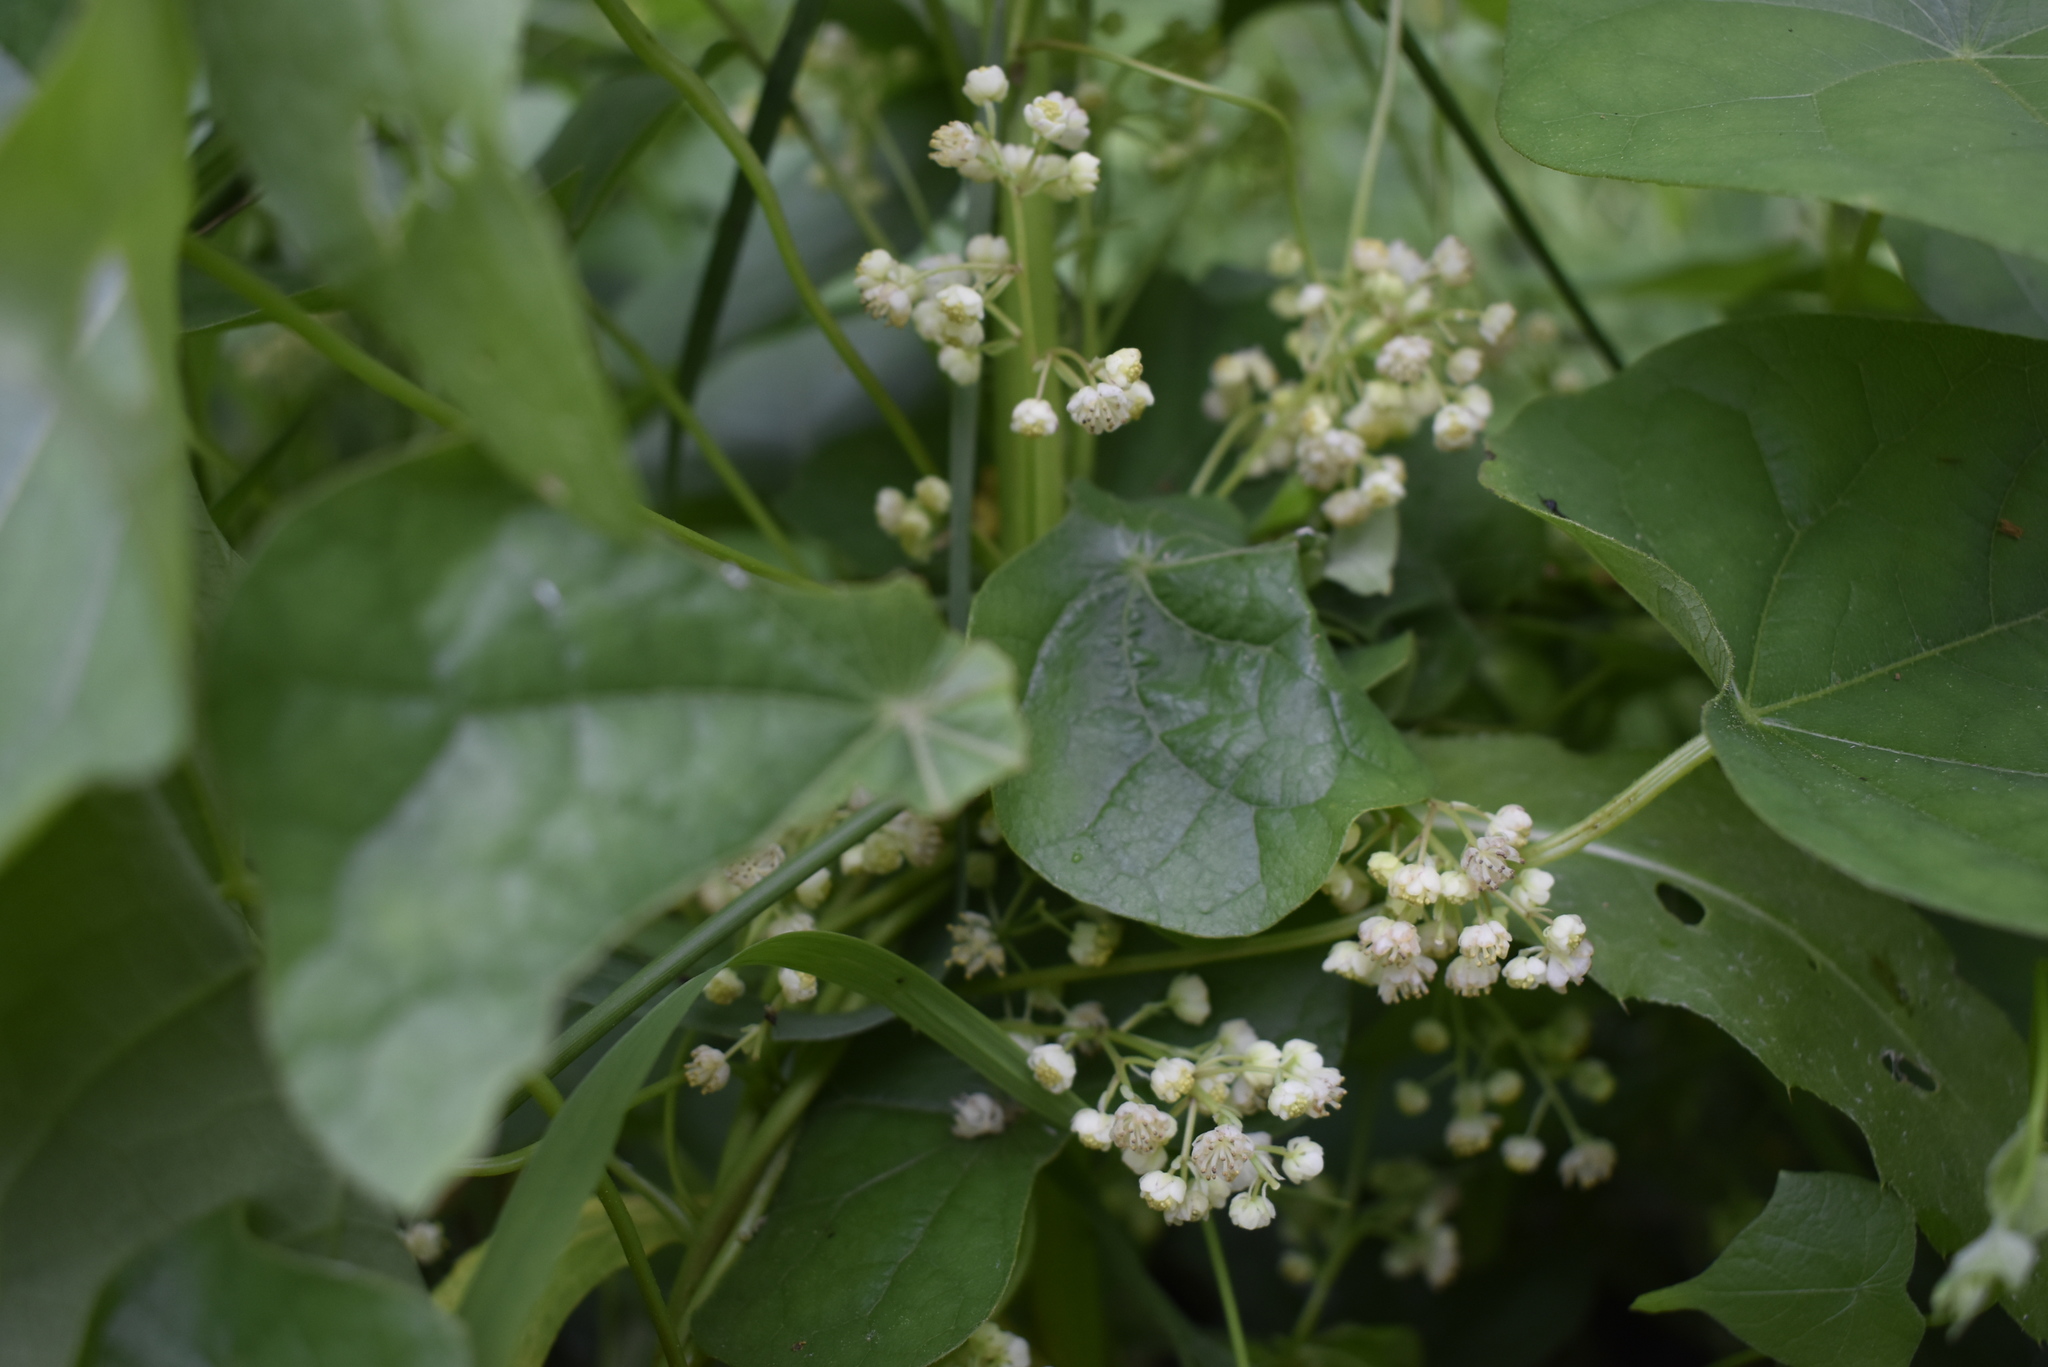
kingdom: Plantae
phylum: Tracheophyta
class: Magnoliopsida
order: Ranunculales
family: Menispermaceae
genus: Menispermum
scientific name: Menispermum dauricum
